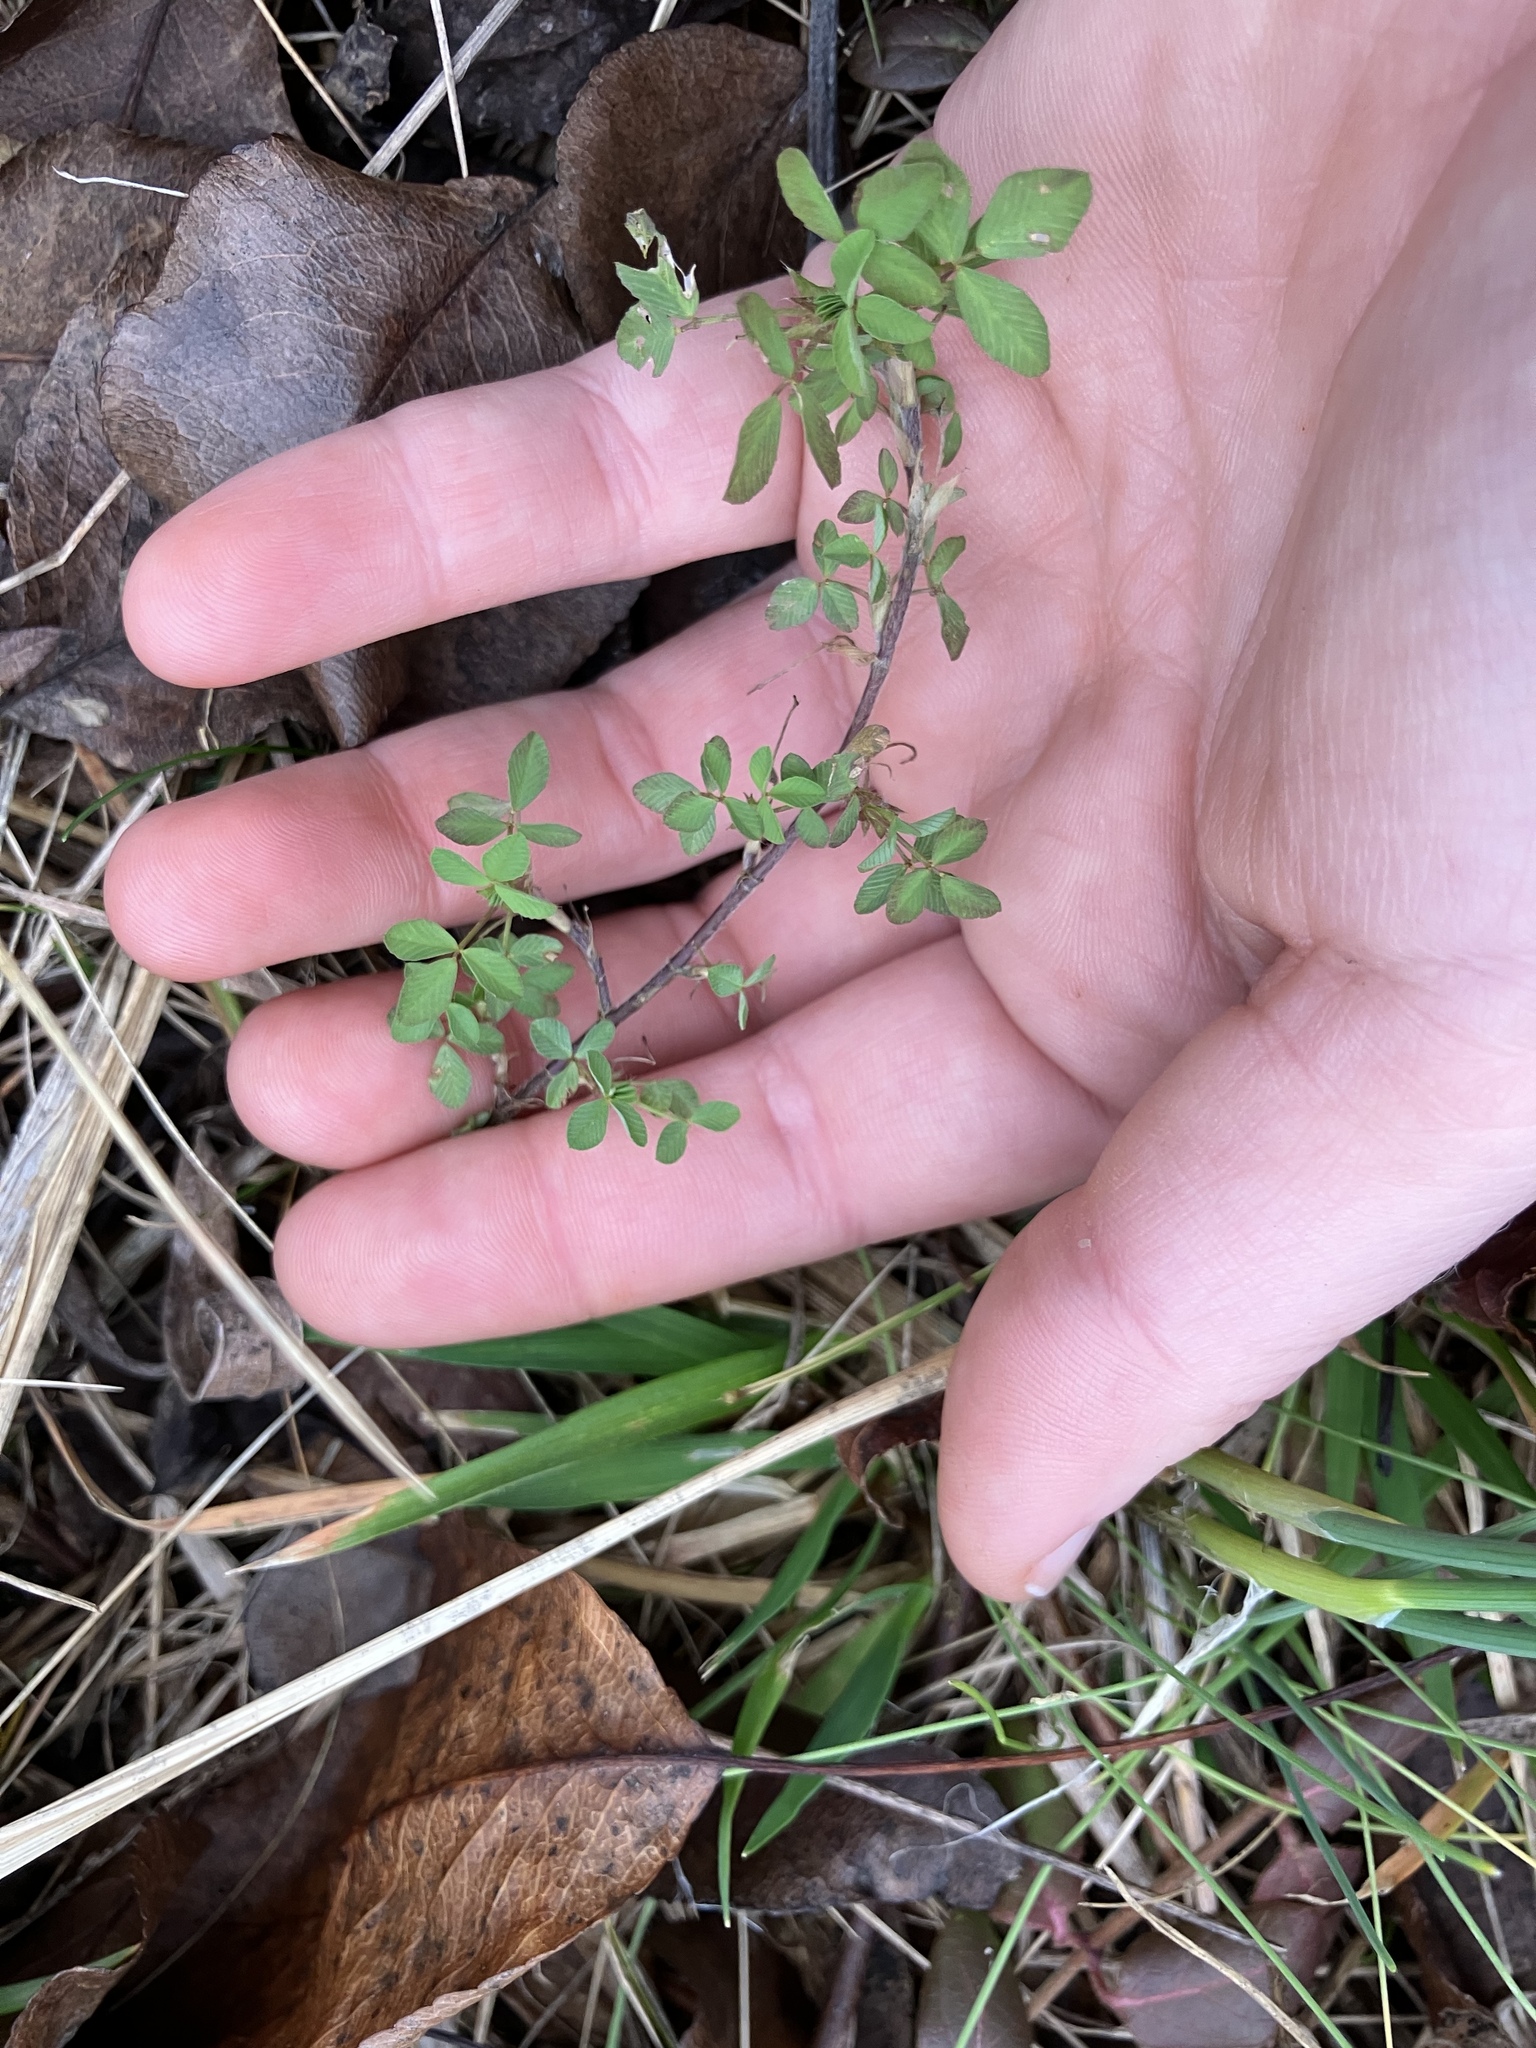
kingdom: Plantae
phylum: Tracheophyta
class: Magnoliopsida
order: Fabales
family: Fabaceae
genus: Kummerowia
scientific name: Kummerowia striata
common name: Japanese clover
